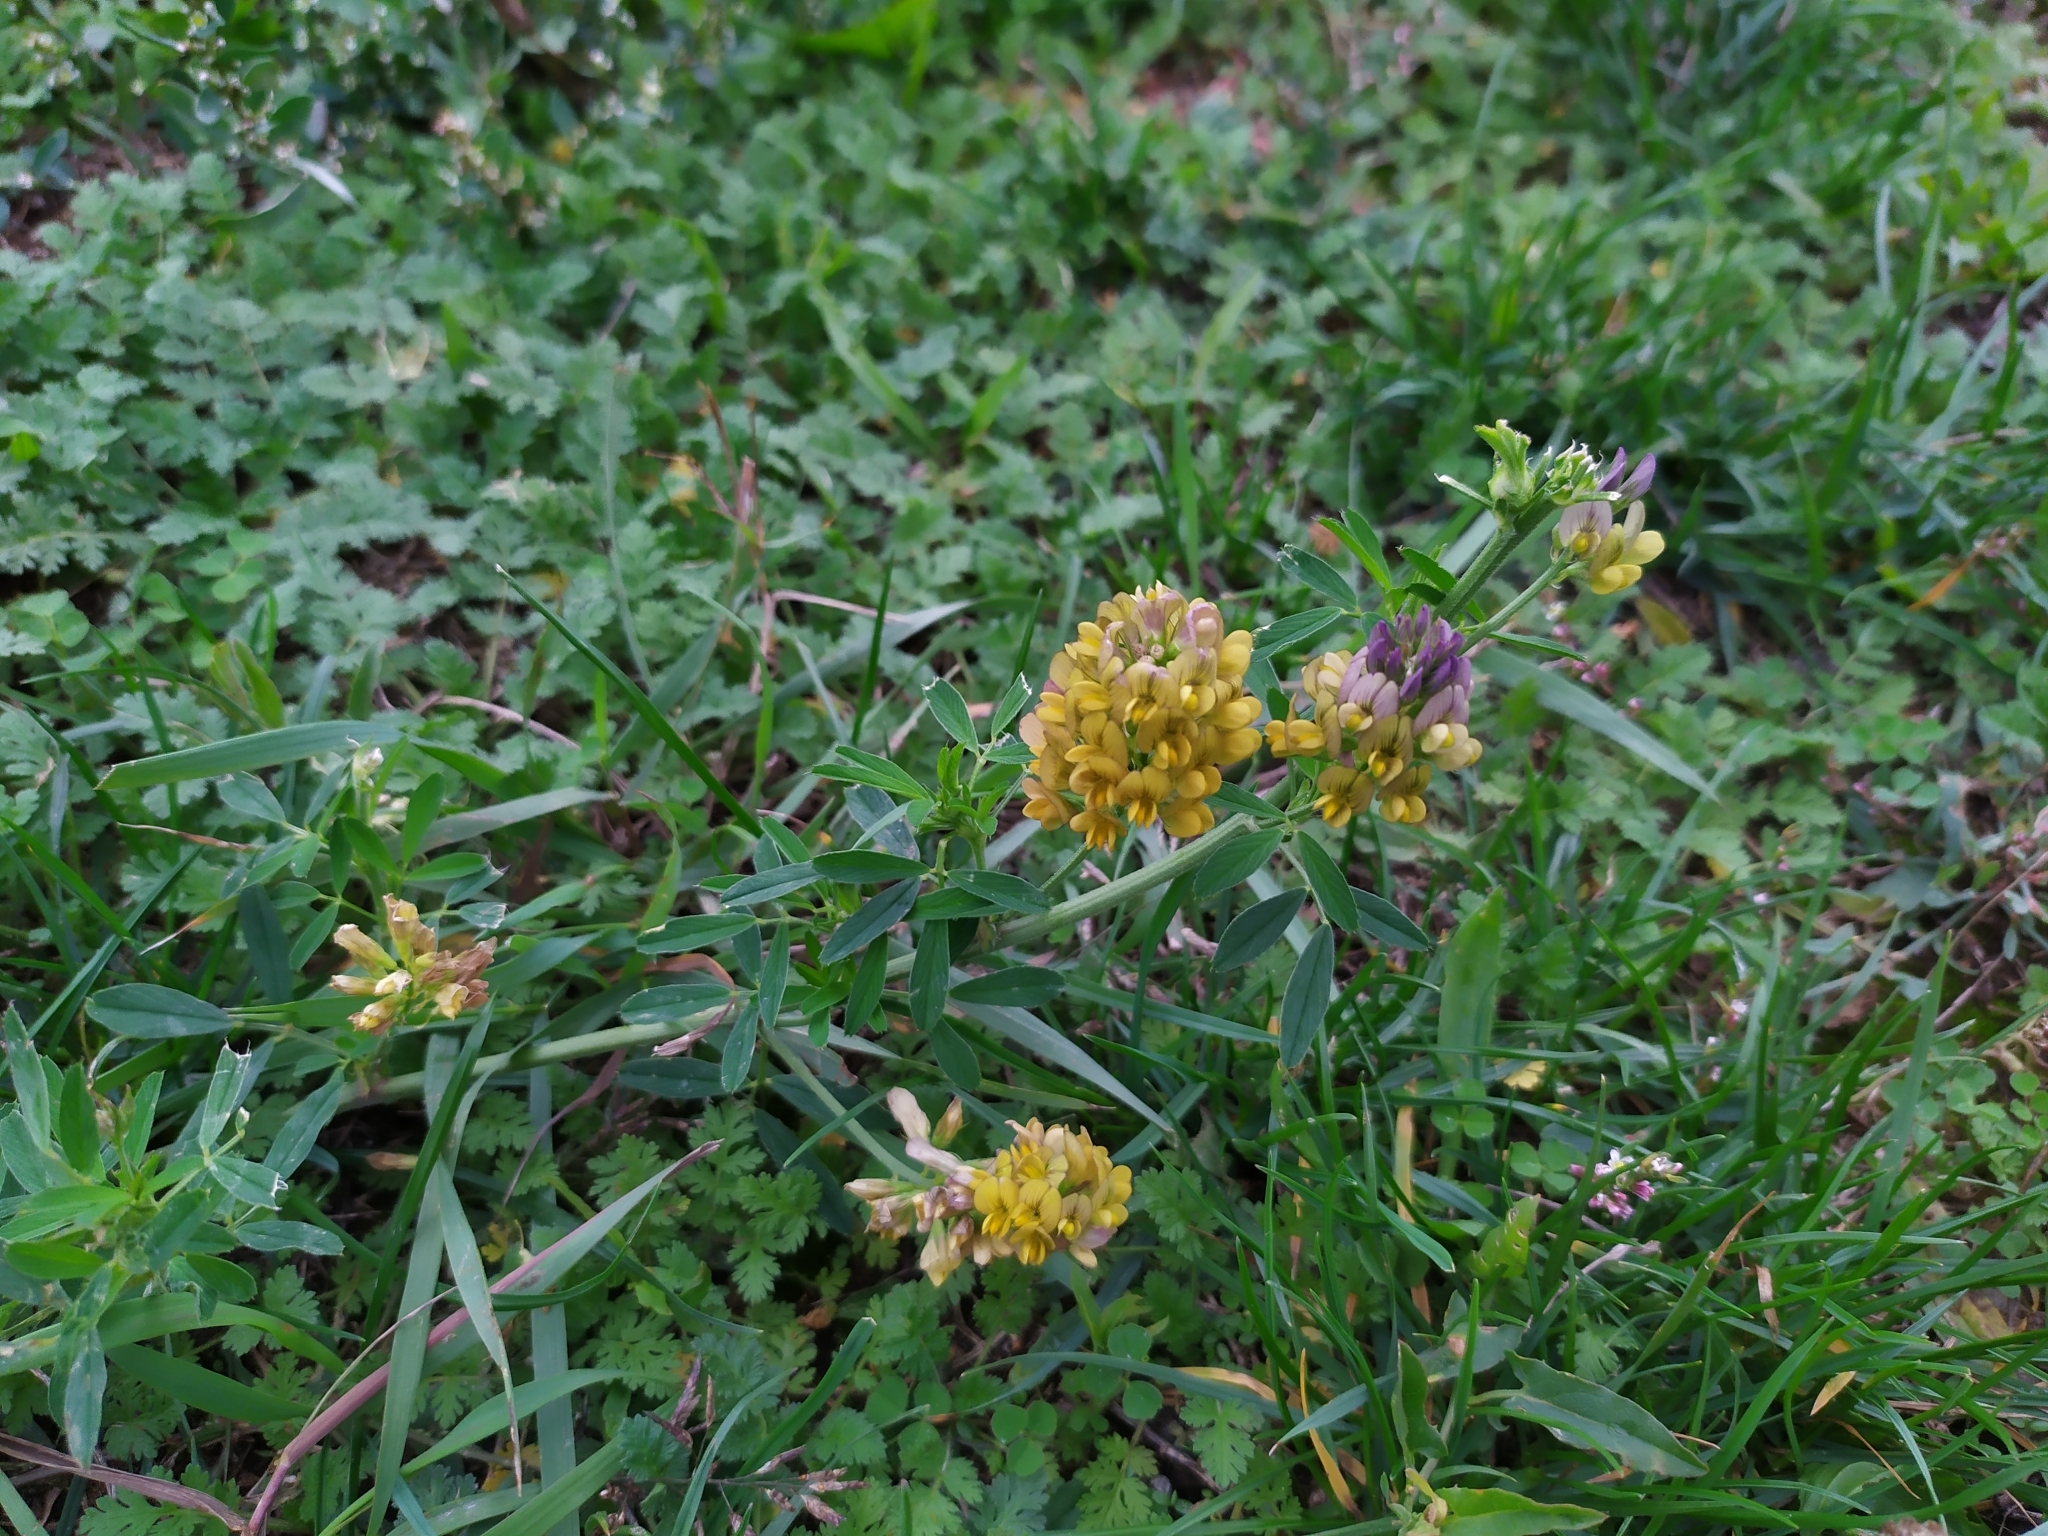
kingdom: Plantae
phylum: Tracheophyta
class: Magnoliopsida
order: Fabales
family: Fabaceae
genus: Medicago
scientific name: Medicago varia
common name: Sand lucerne
